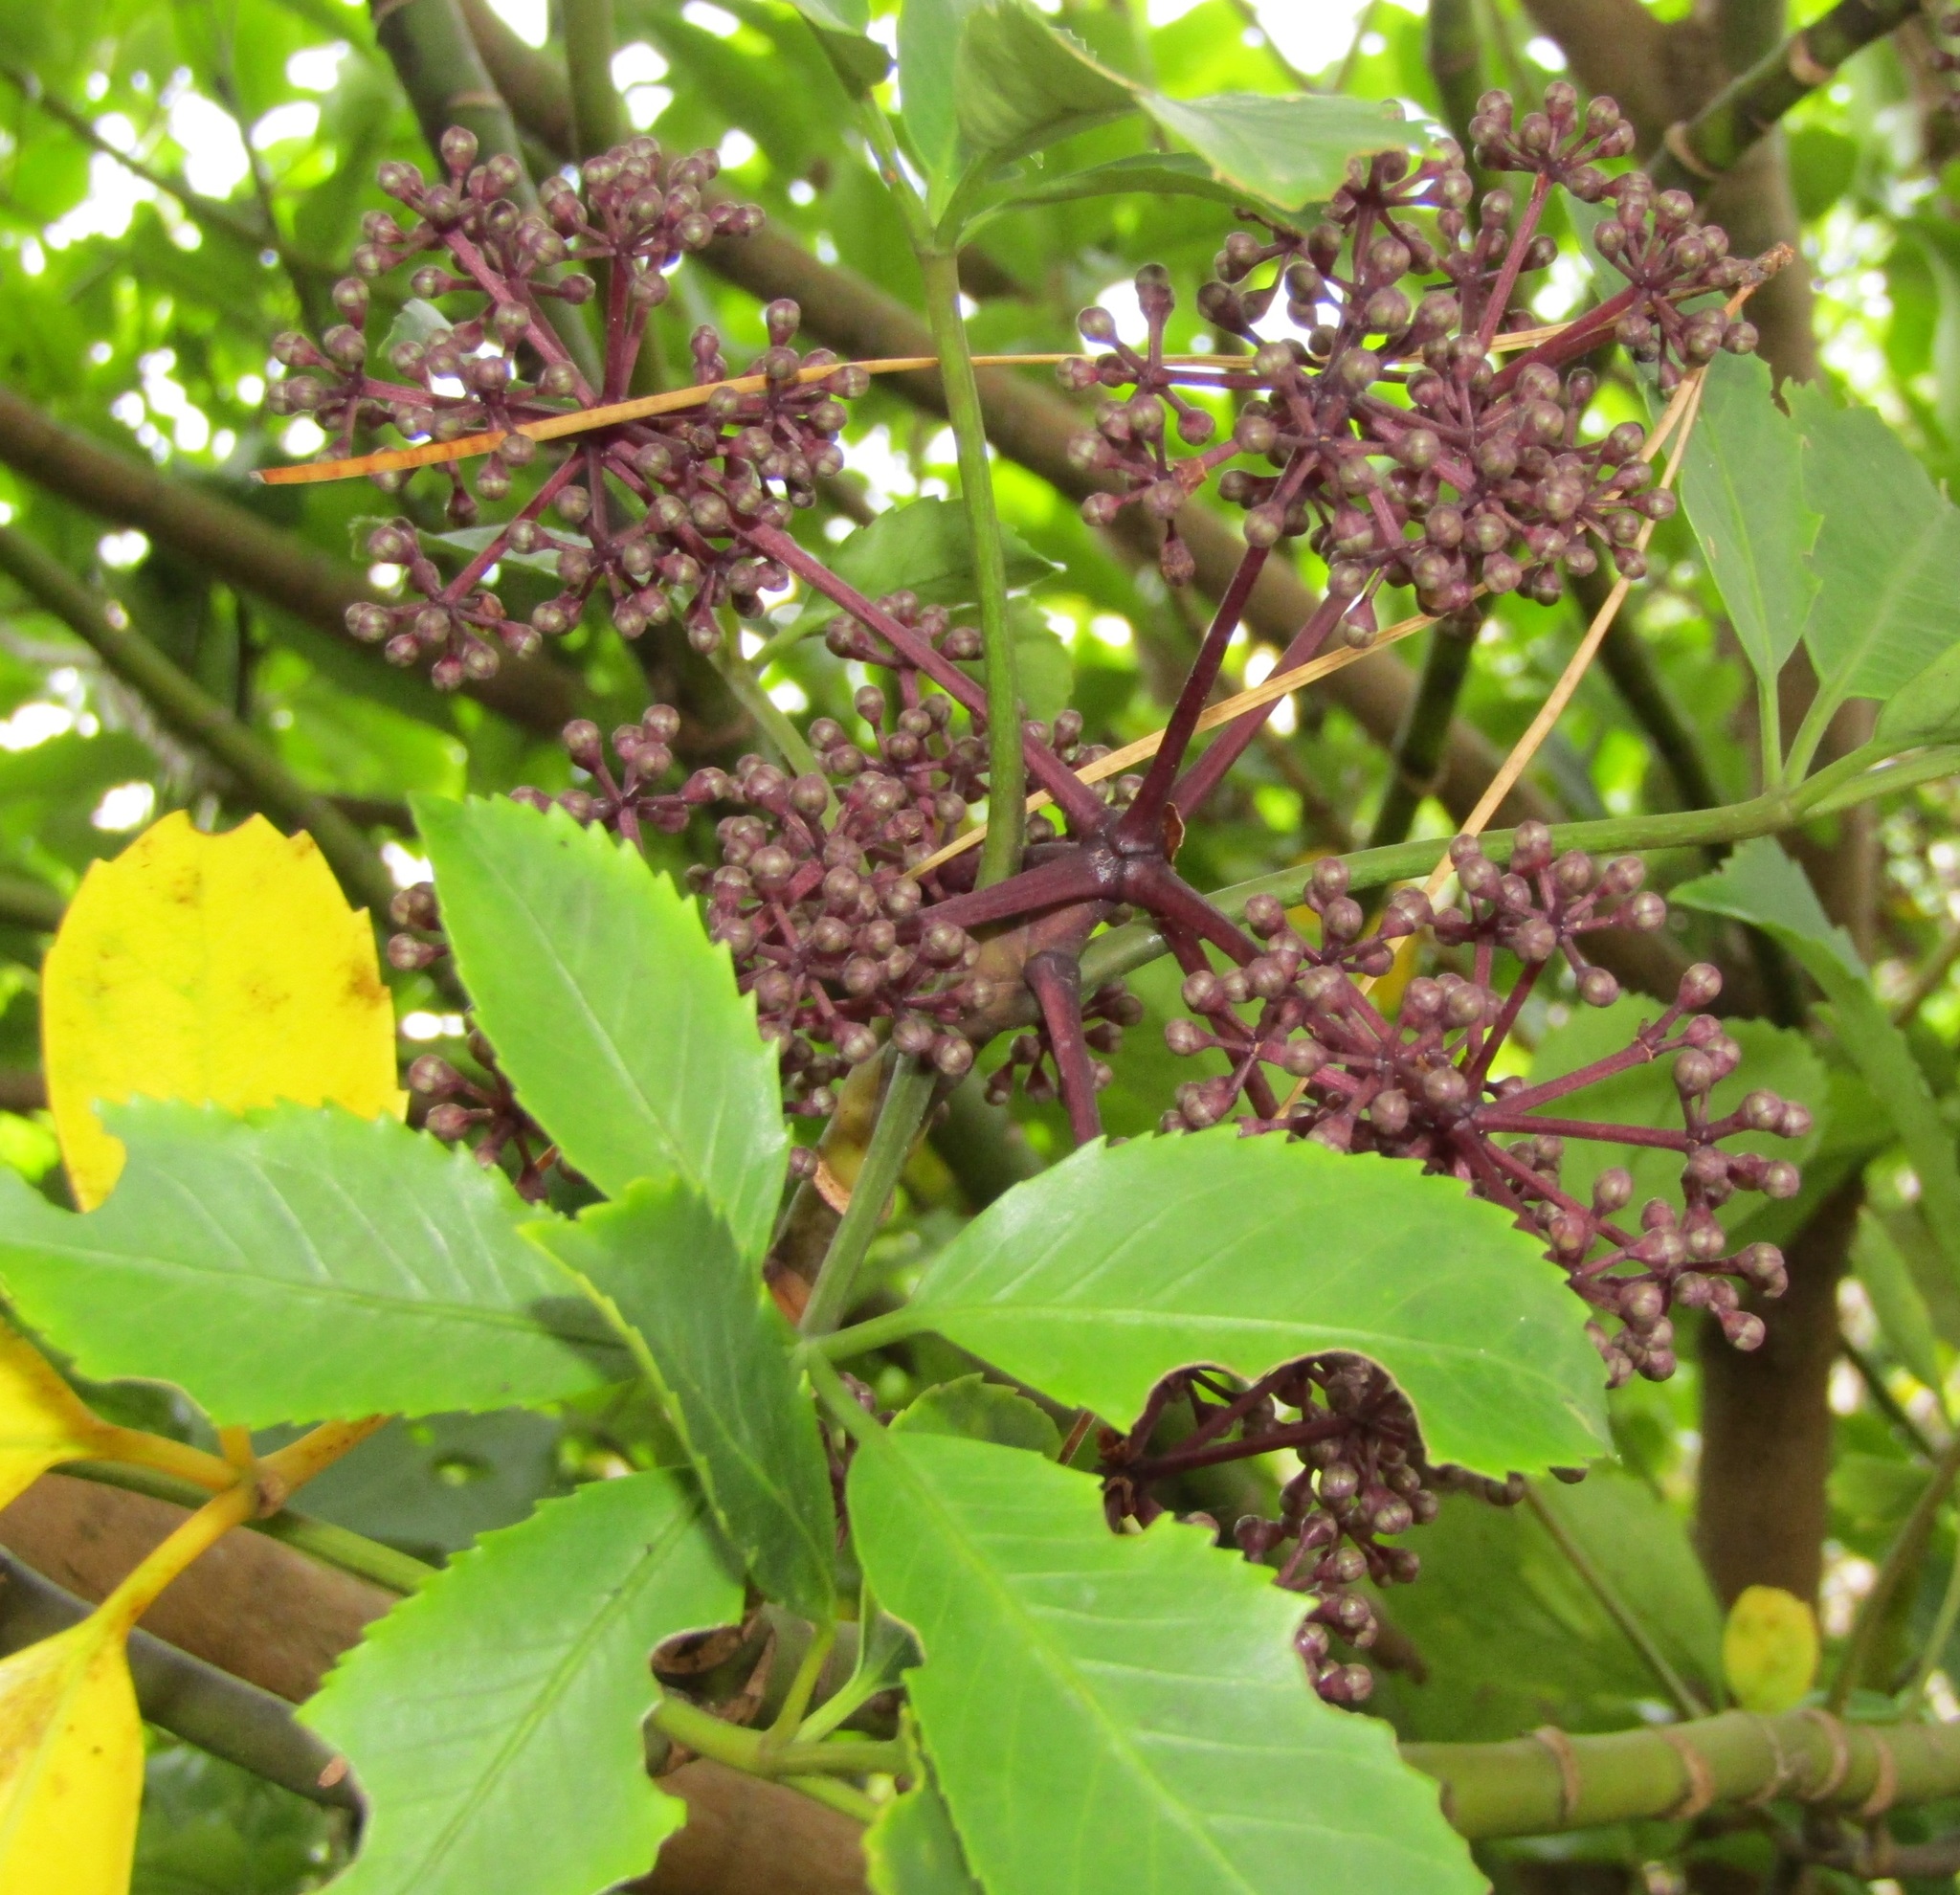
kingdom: Plantae
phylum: Tracheophyta
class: Magnoliopsida
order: Apiales
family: Araliaceae
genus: Neopanax
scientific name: Neopanax arboreus
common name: Five-fingers
